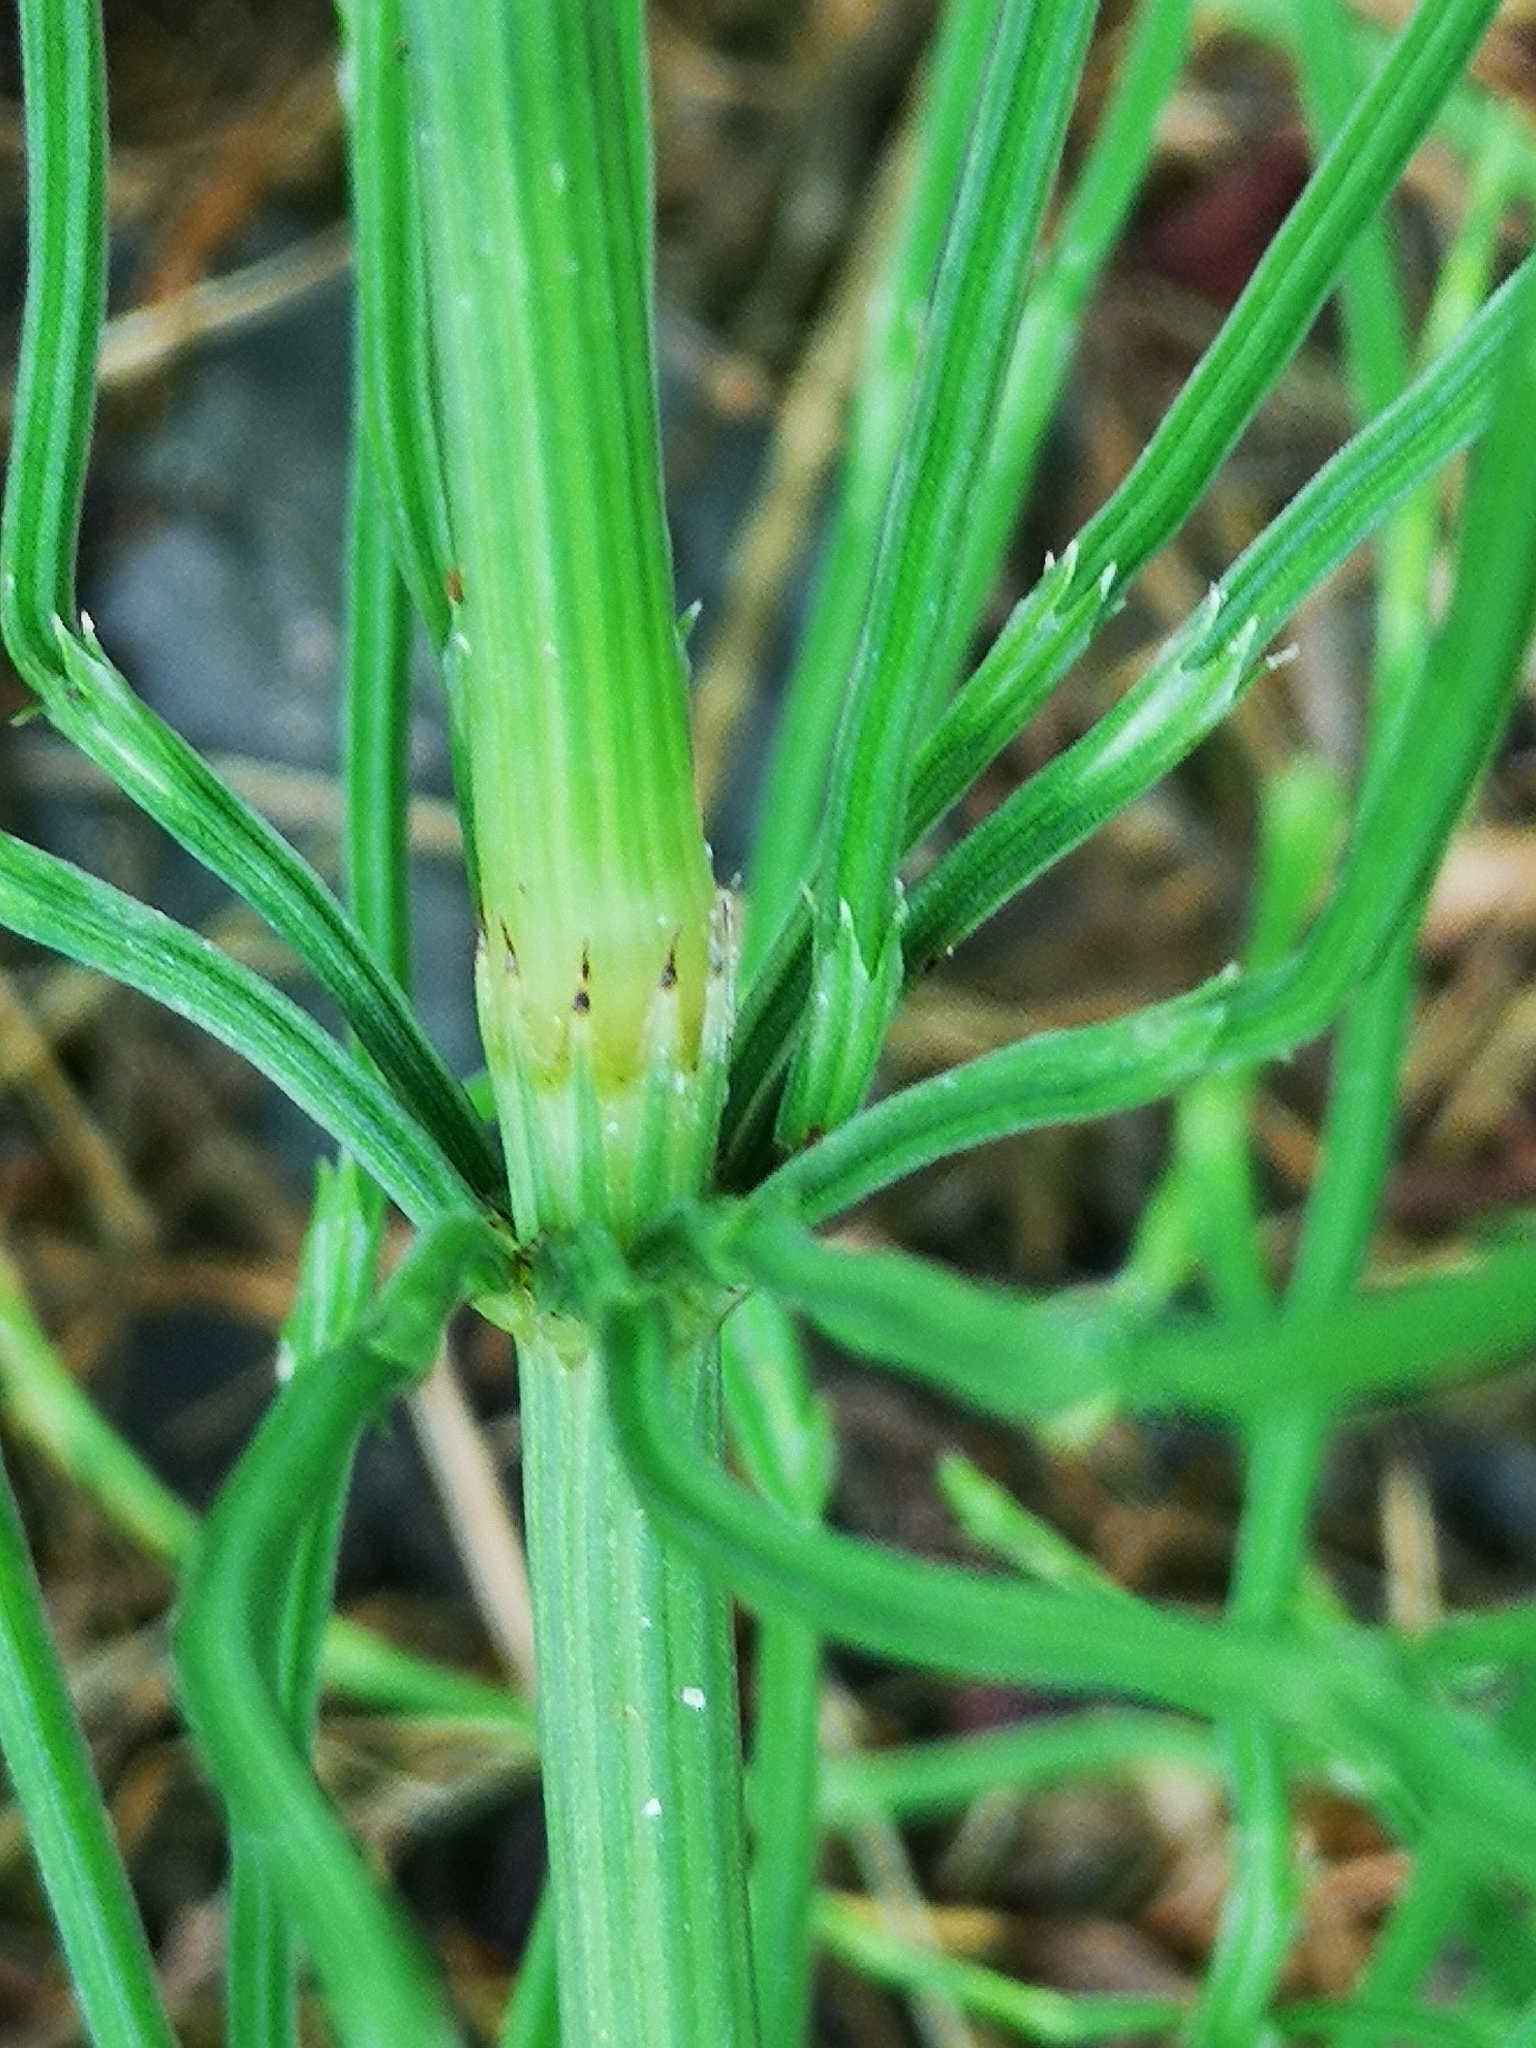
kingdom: Plantae
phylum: Tracheophyta
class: Polypodiopsida
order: Equisetales
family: Equisetaceae
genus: Equisetum
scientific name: Equisetum arvense
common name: Field horsetail
